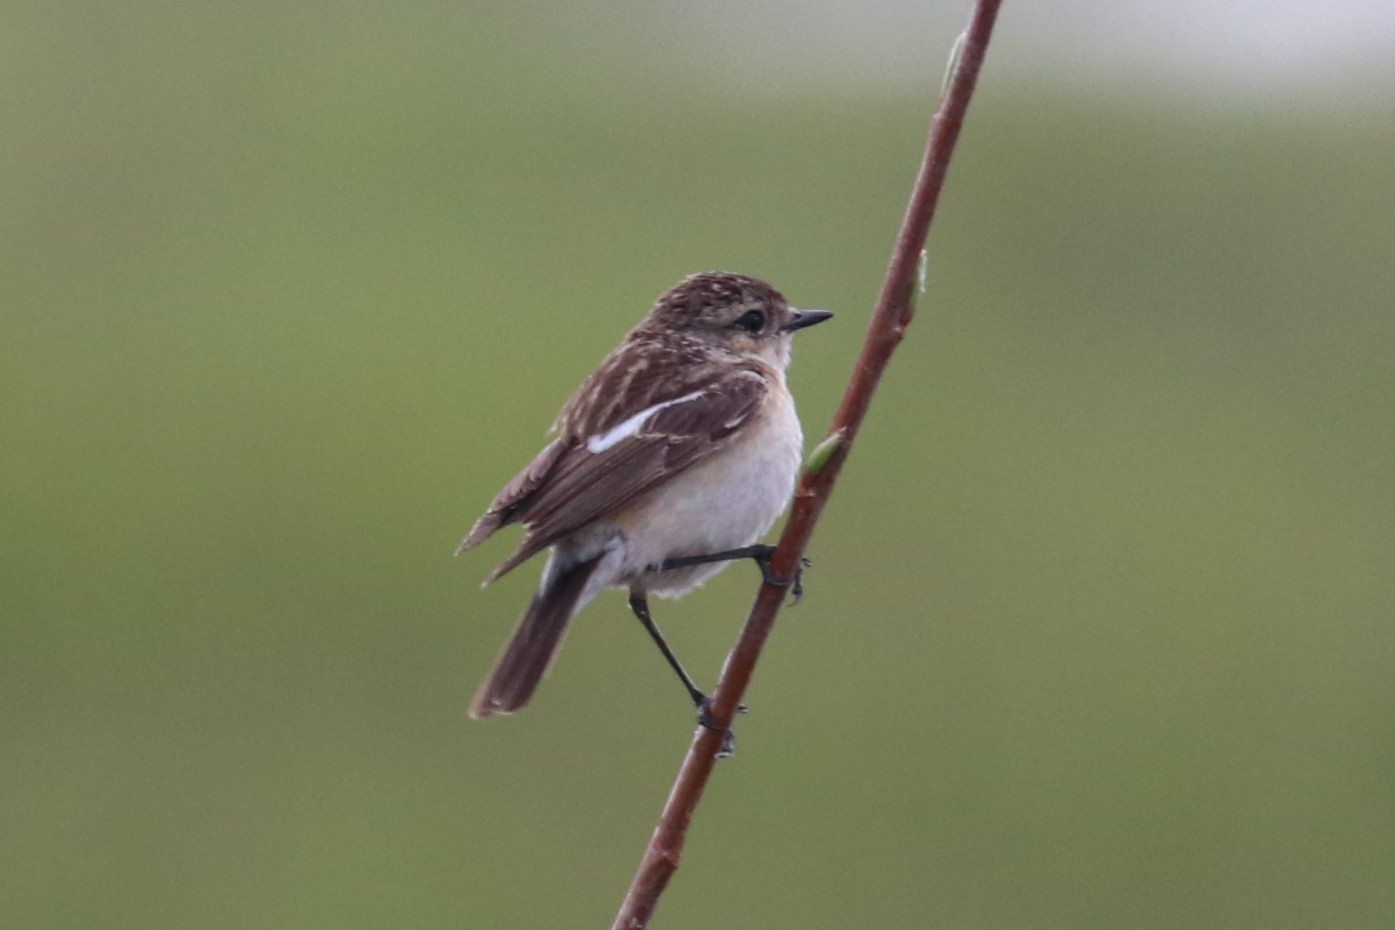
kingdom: Animalia
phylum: Chordata
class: Aves
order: Passeriformes
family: Muscicapidae
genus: Saxicola
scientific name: Saxicola maurus
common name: Siberian stonechat
